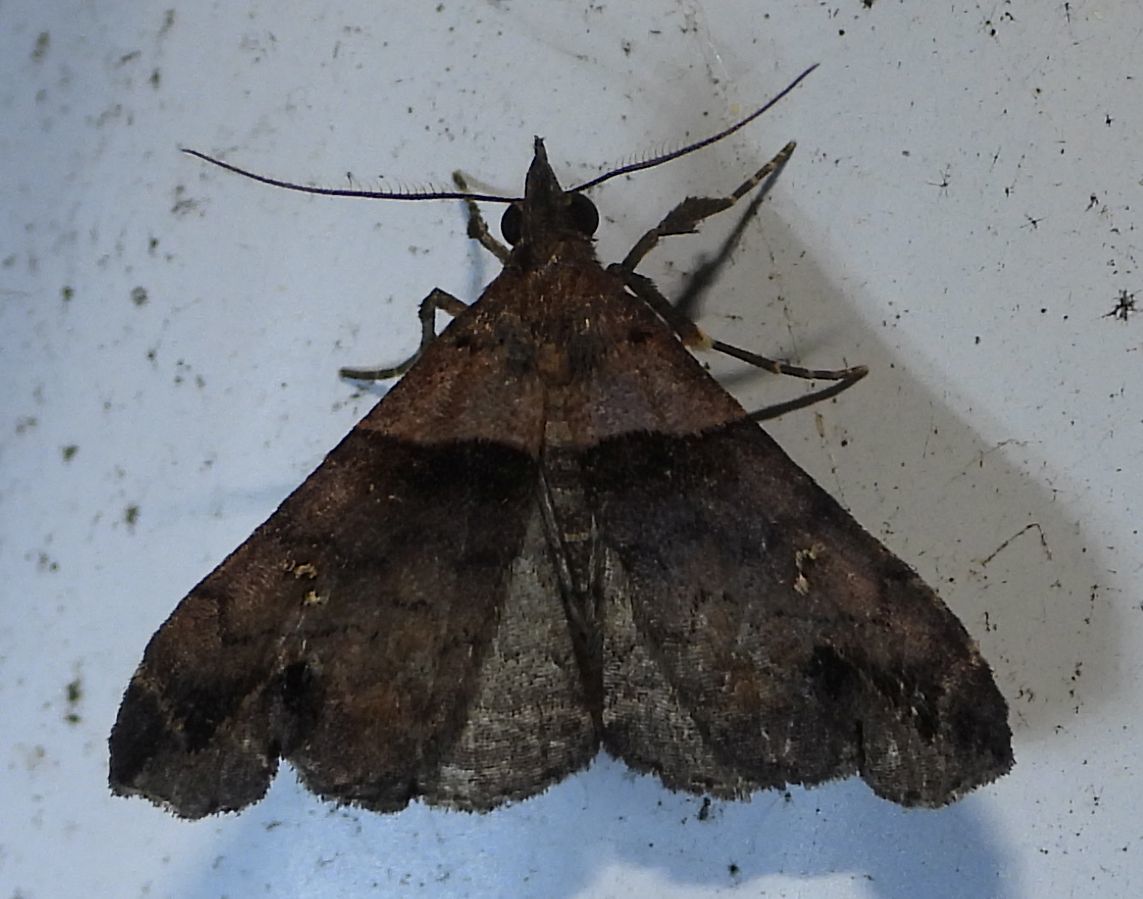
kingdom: Animalia
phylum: Arthropoda
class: Insecta
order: Lepidoptera
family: Erebidae
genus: Lascoria
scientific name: Lascoria ambigualis
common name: Ambiguous moth
